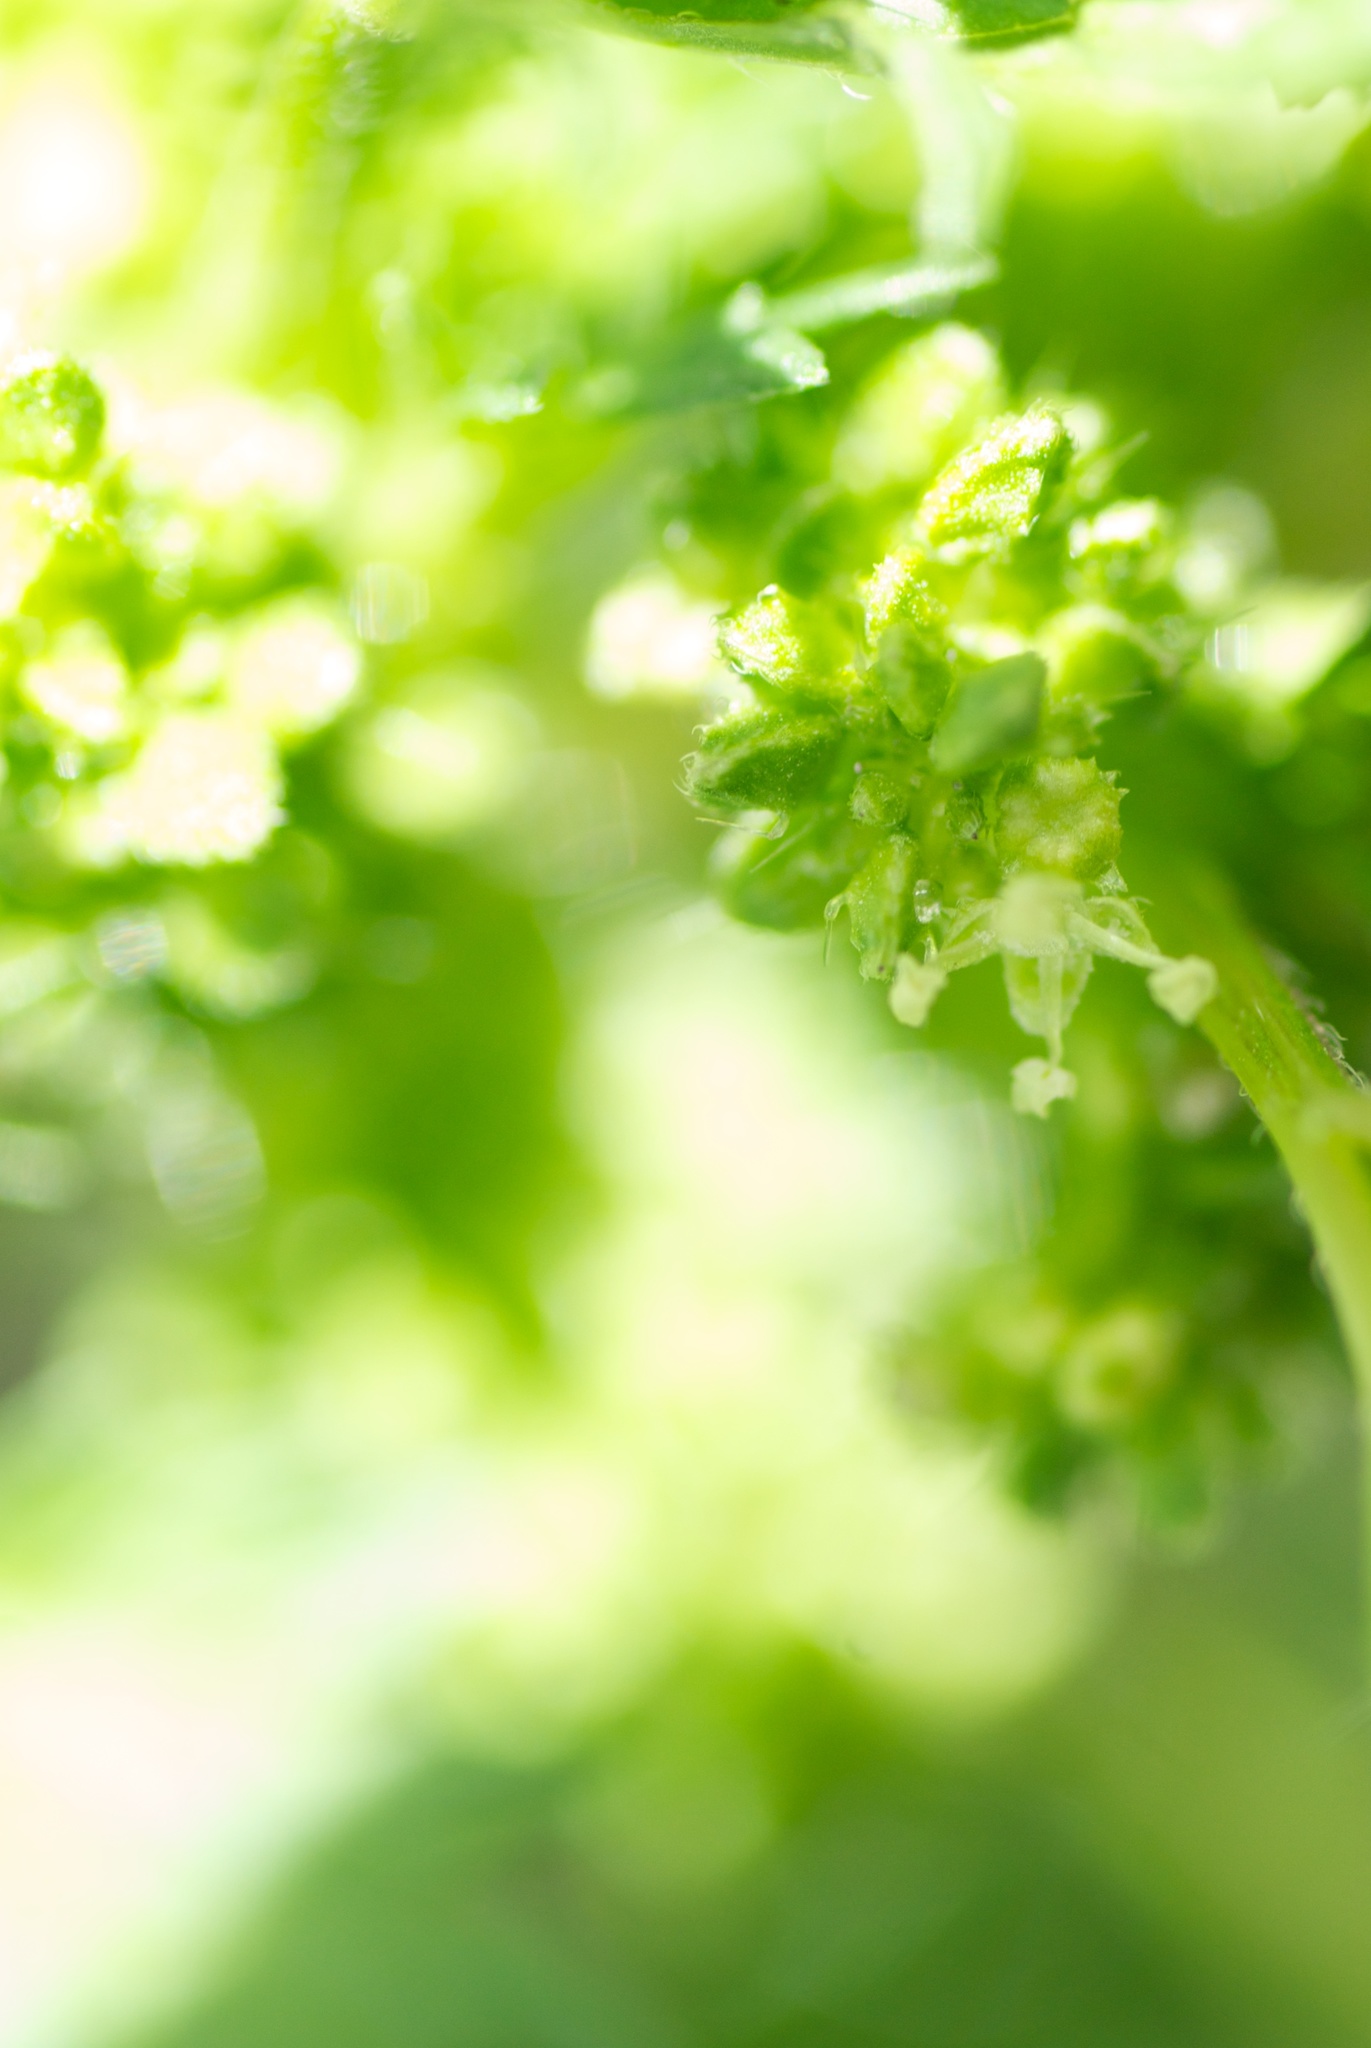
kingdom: Plantae
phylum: Tracheophyta
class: Magnoliopsida
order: Rosales
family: Urticaceae
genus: Urtica
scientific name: Urtica urens
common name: Dwarf nettle
